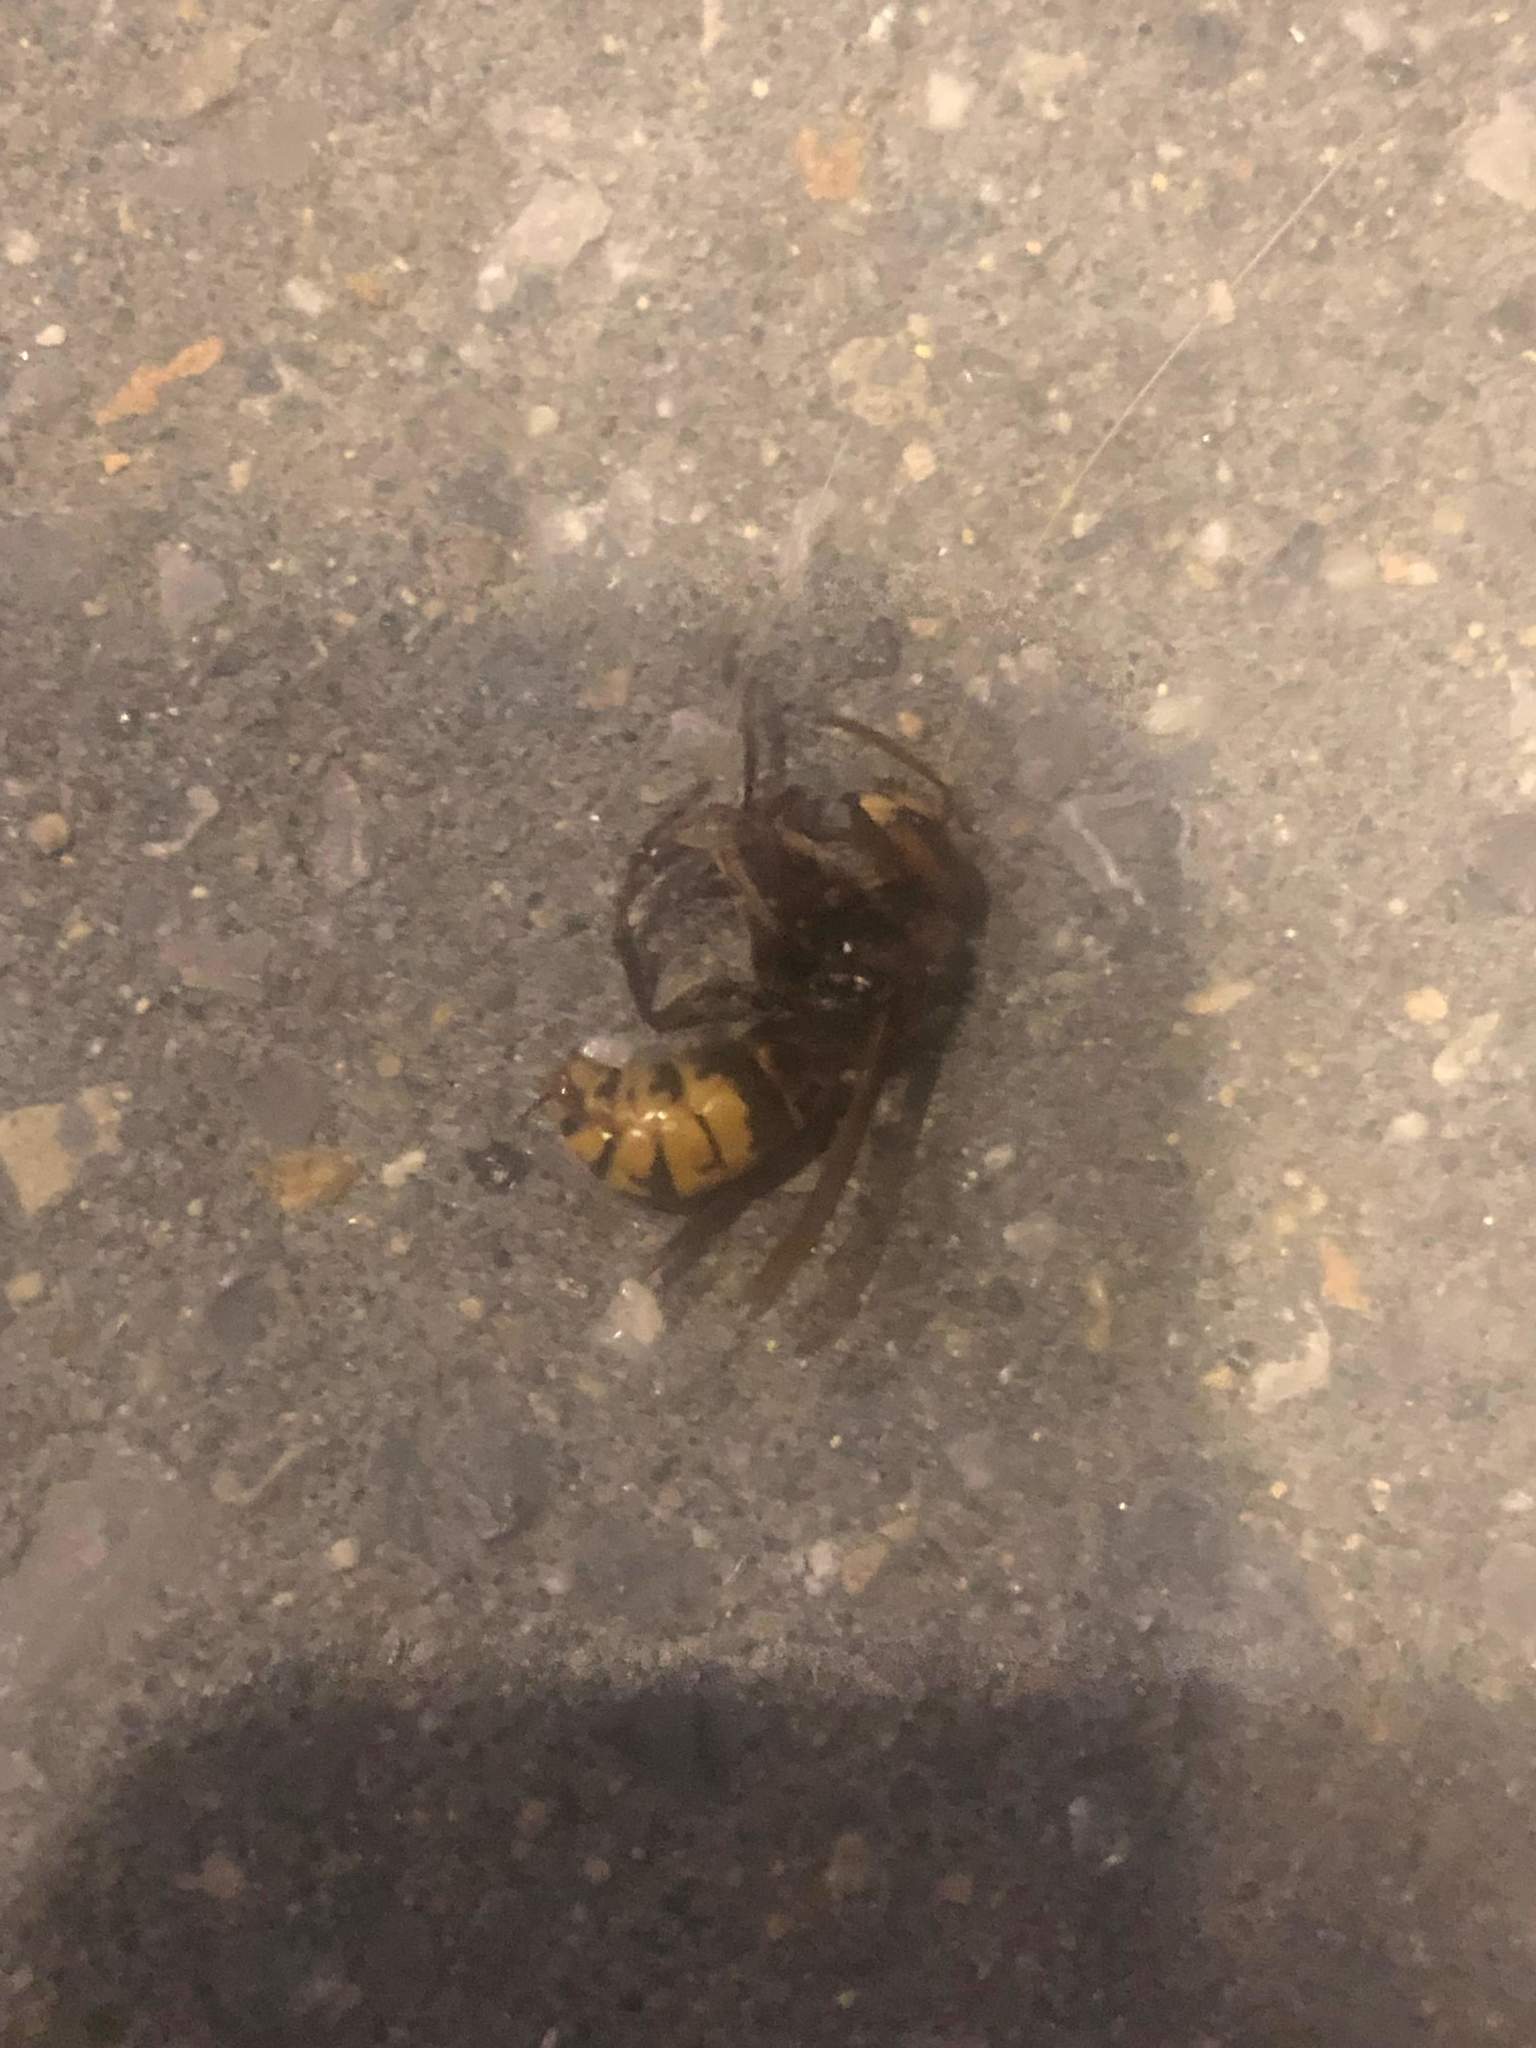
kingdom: Animalia
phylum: Arthropoda
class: Insecta
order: Hymenoptera
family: Vespidae
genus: Vespa
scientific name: Vespa crabro
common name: Hornet
